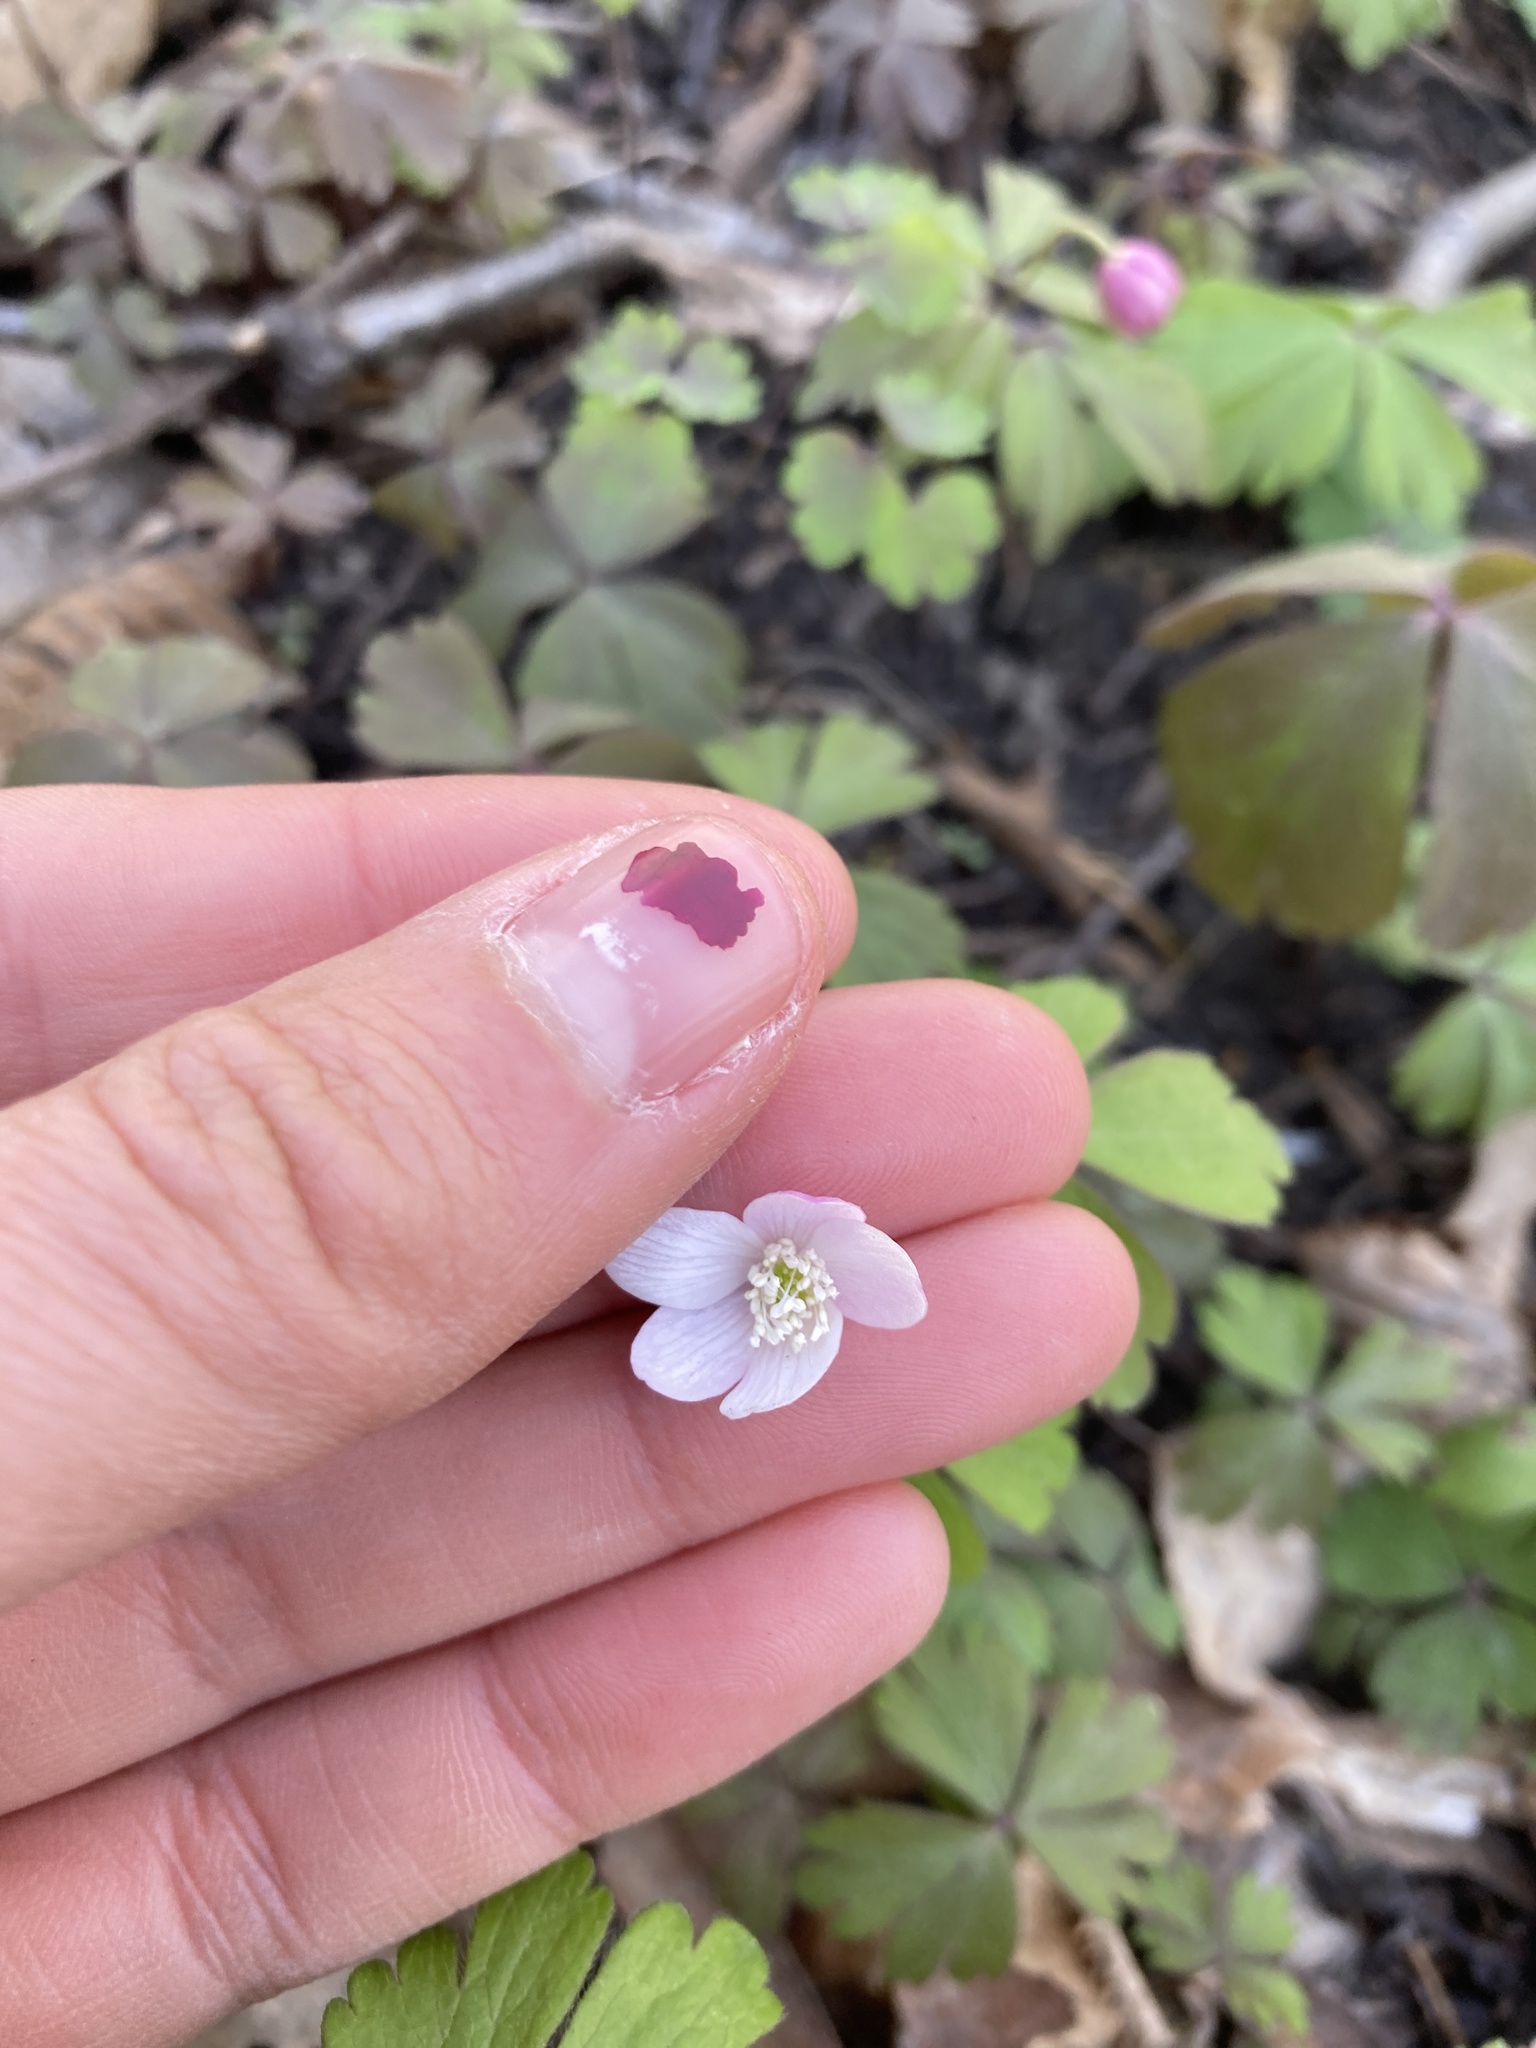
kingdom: Plantae
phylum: Tracheophyta
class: Magnoliopsida
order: Ranunculales
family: Ranunculaceae
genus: Anemone
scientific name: Anemone quinquefolia
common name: Wood anemone
